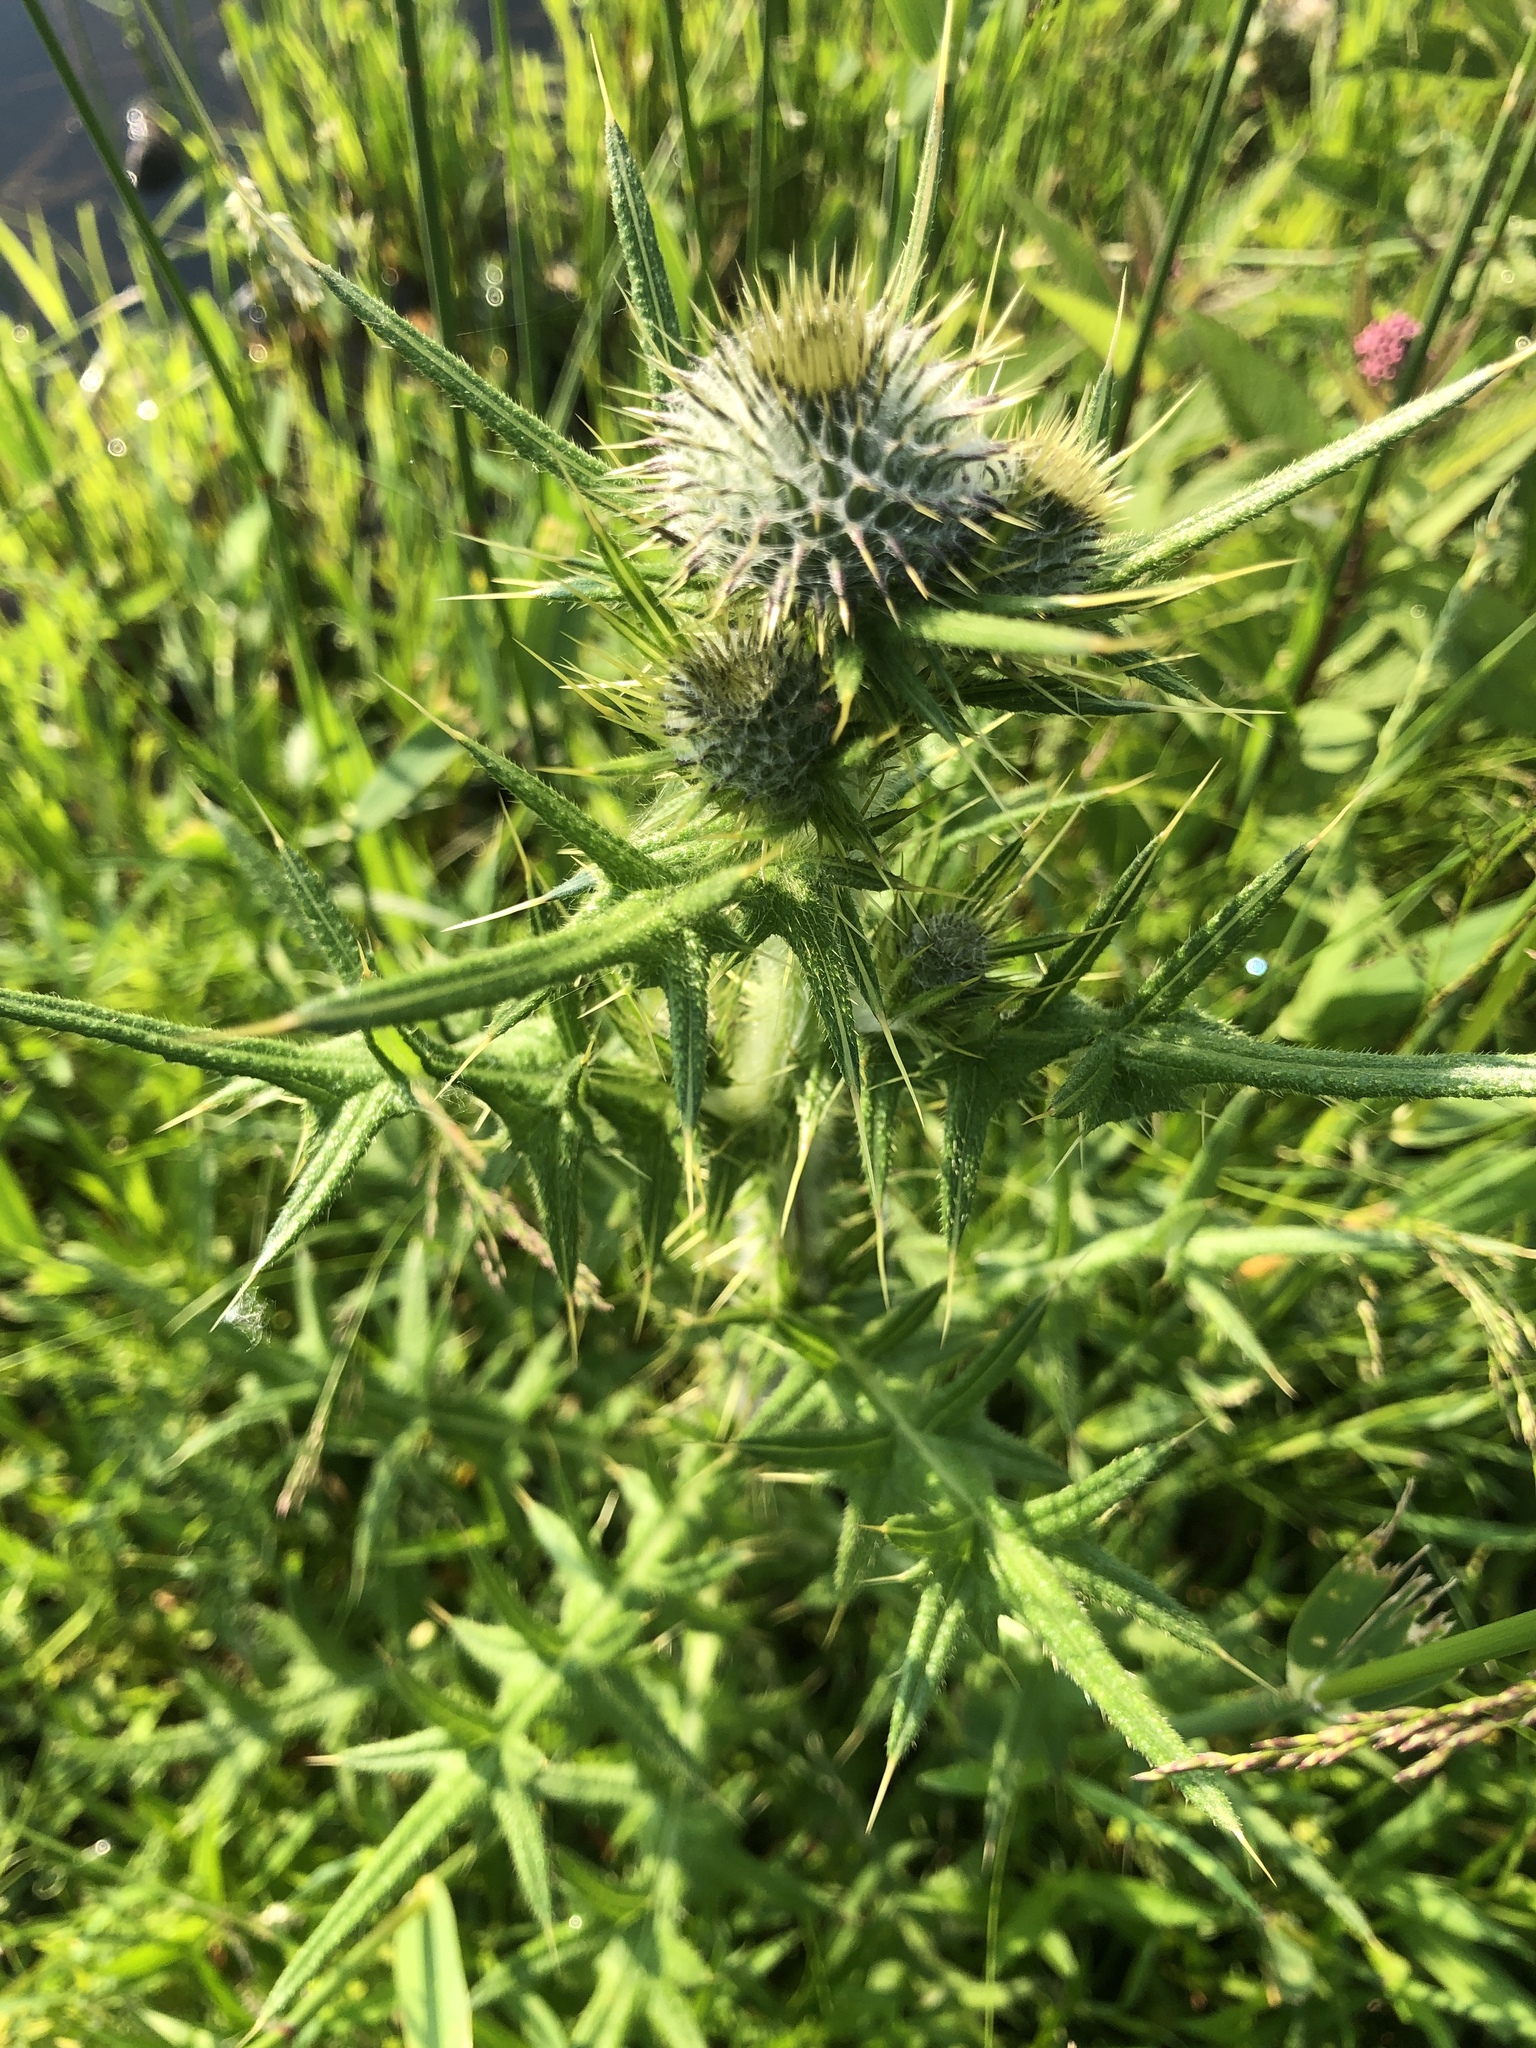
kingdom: Plantae
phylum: Tracheophyta
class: Magnoliopsida
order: Asterales
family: Asteraceae
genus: Cirsium
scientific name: Cirsium vulgare
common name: Bull thistle
